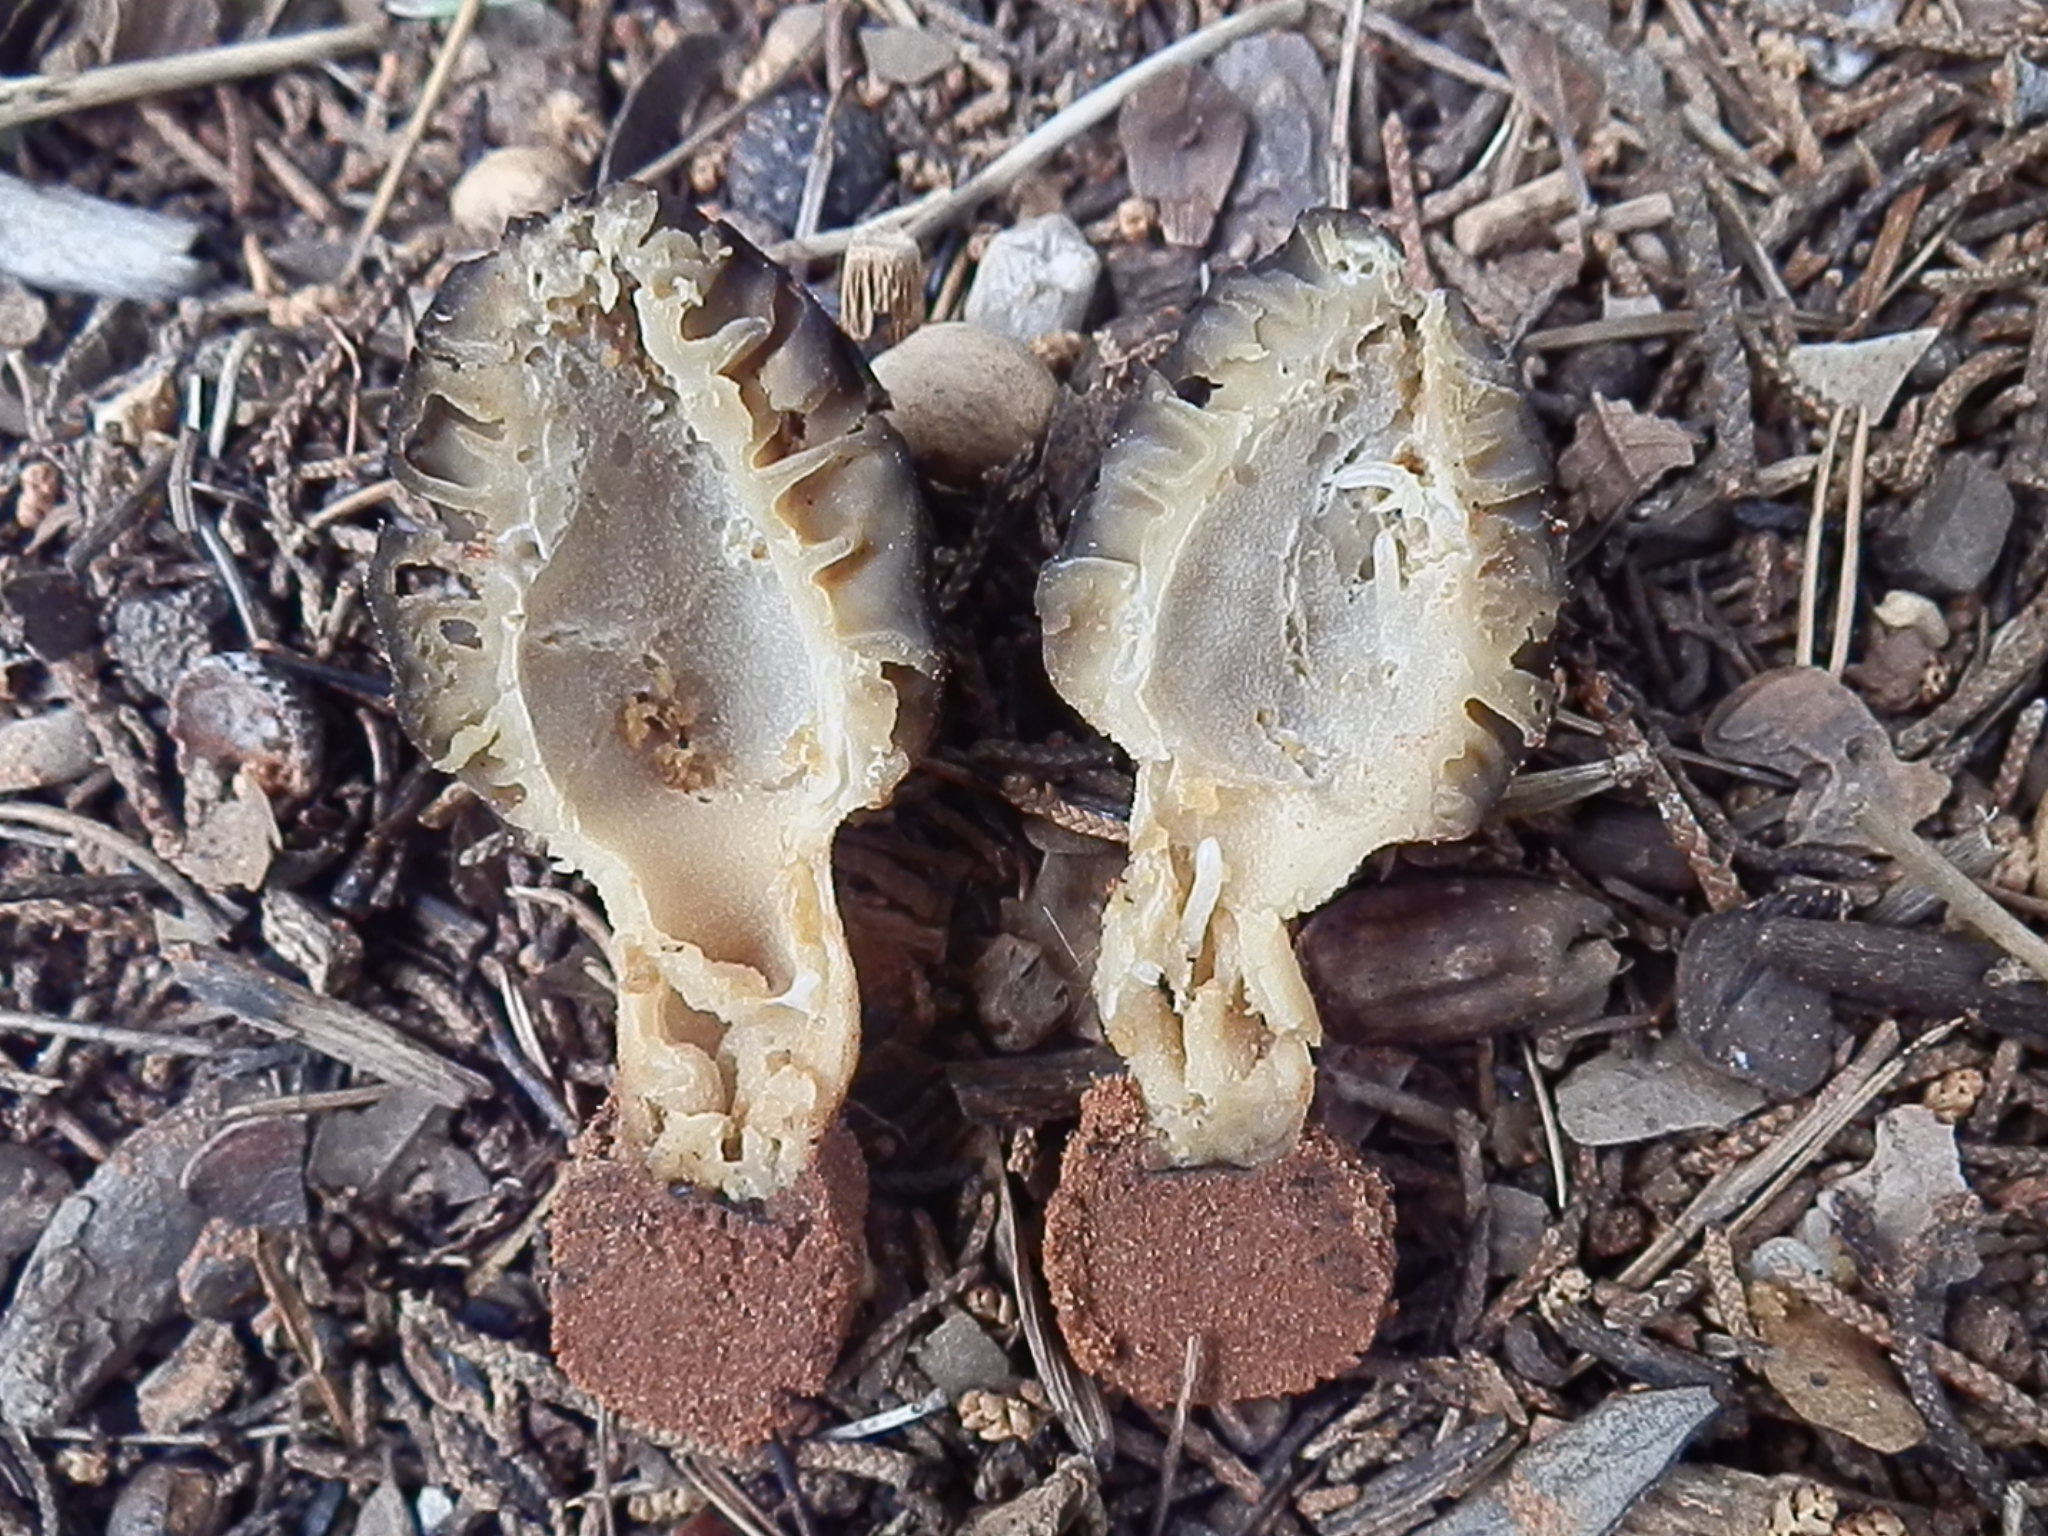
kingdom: Fungi
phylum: Ascomycota
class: Pezizomycetes
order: Pezizales
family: Morchellaceae
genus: Morchella
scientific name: Morchella brunnea
